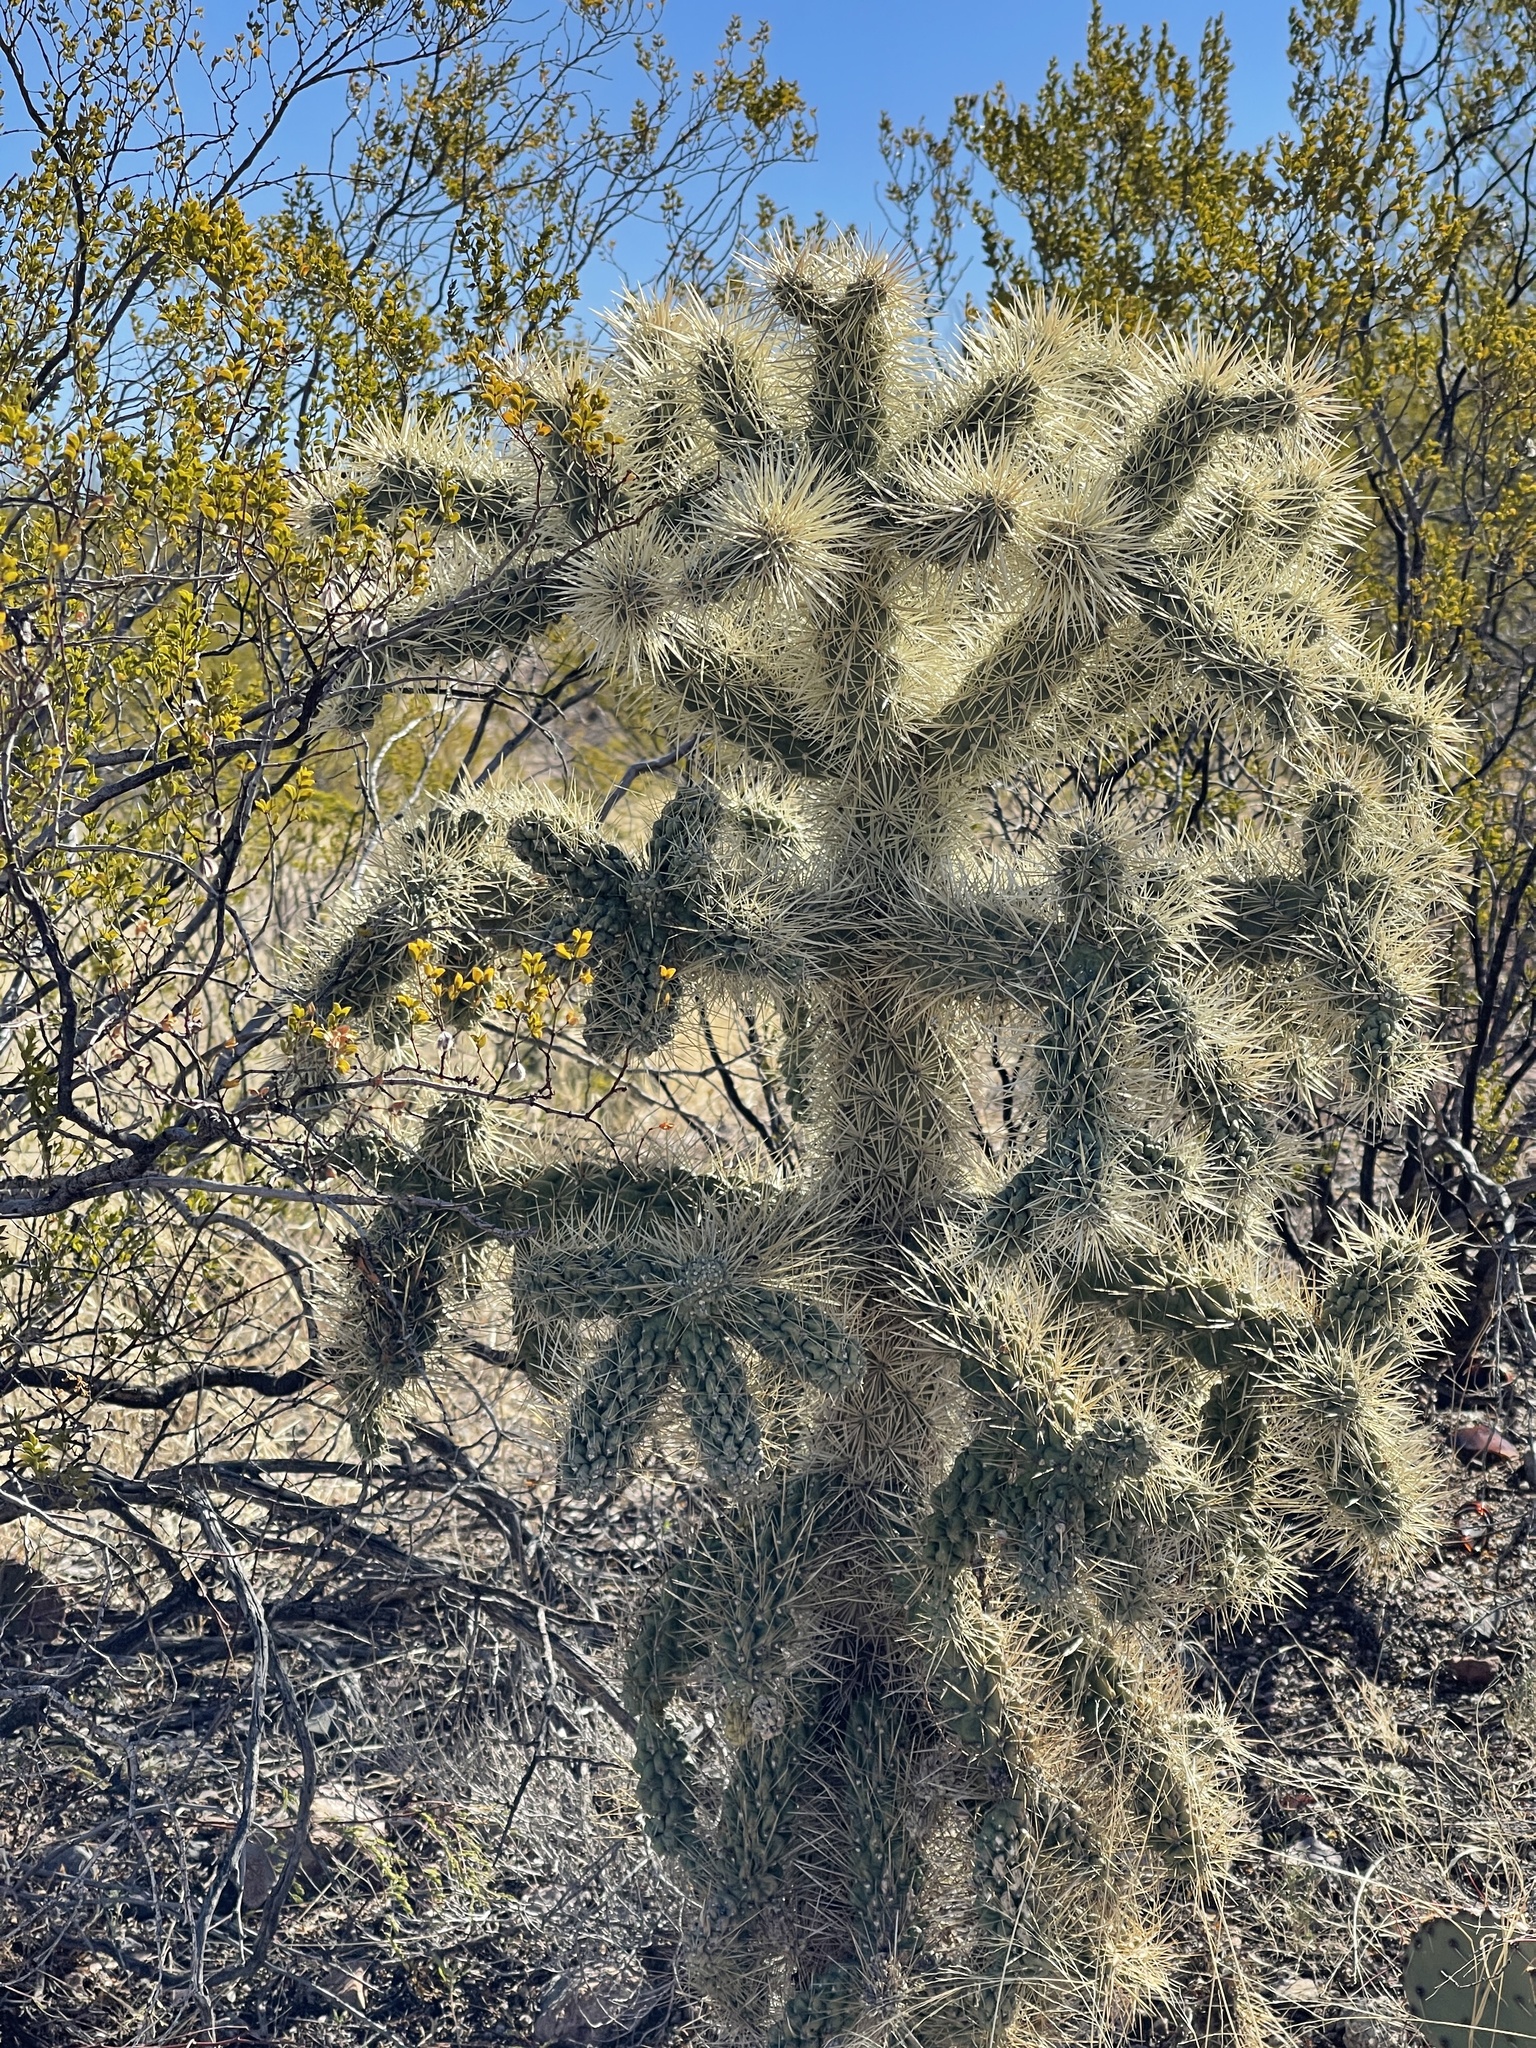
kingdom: Plantae
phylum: Tracheophyta
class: Magnoliopsida
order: Caryophyllales
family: Cactaceae
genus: Cylindropuntia
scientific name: Cylindropuntia fulgida
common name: Jumping cholla
